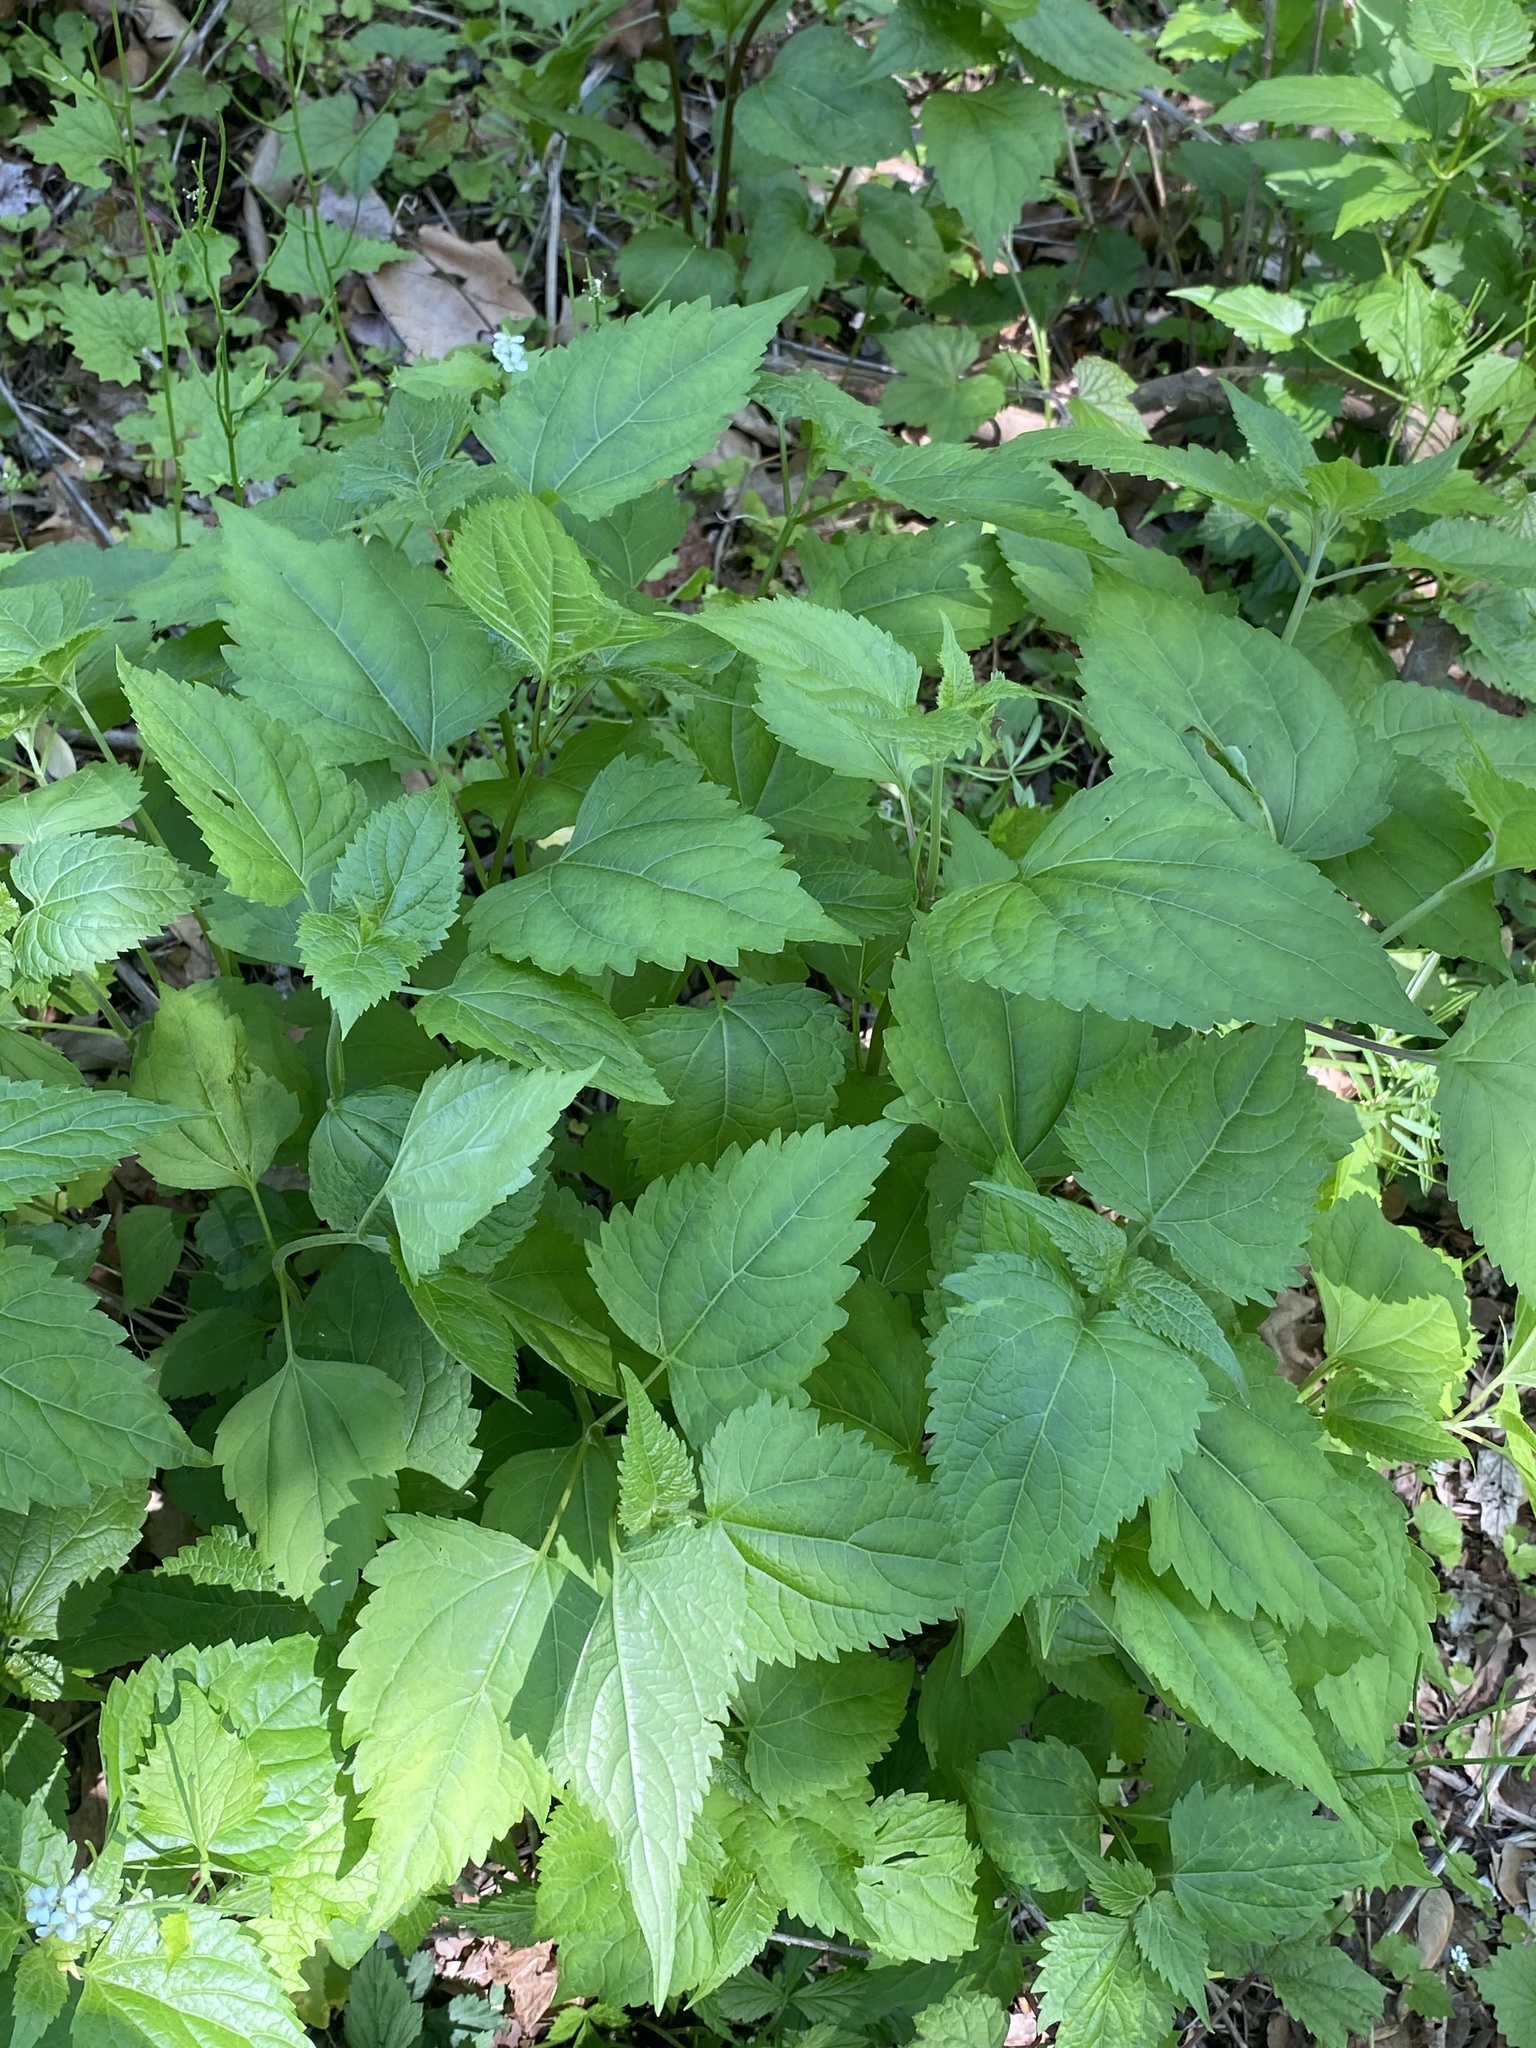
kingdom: Plantae
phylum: Tracheophyta
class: Magnoliopsida
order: Asterales
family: Asteraceae
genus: Ageratina
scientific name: Ageratina altissima
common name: White snakeroot
